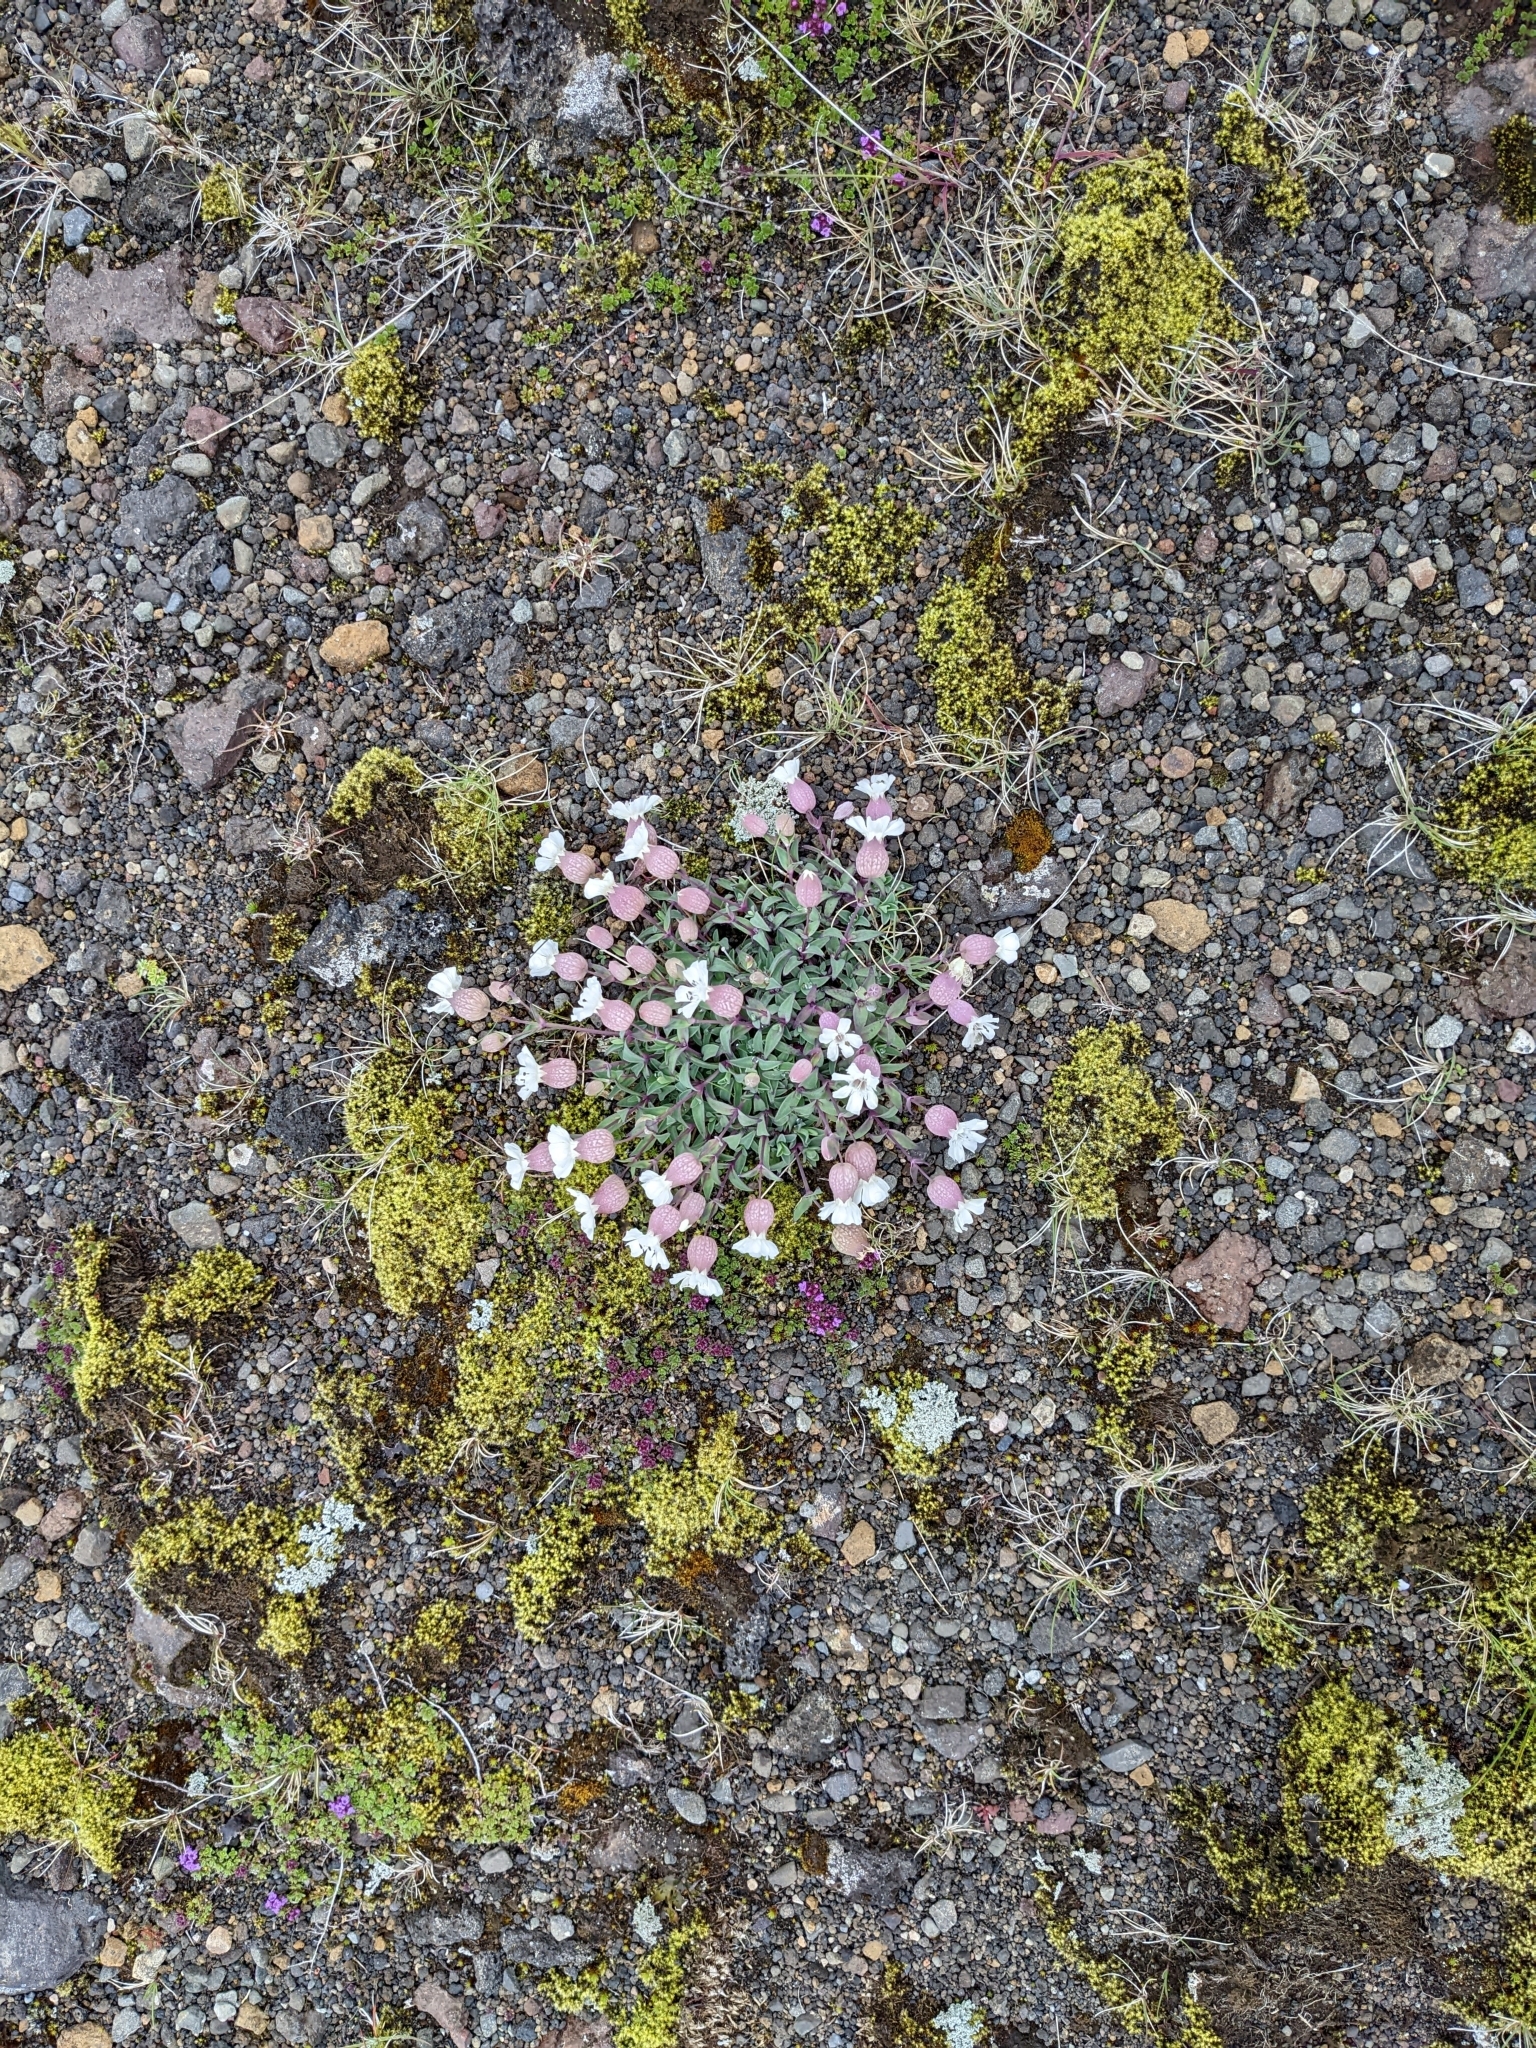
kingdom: Plantae
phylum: Tracheophyta
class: Magnoliopsida
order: Caryophyllales
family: Caryophyllaceae
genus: Silene
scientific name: Silene uniflora
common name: Sea campion
